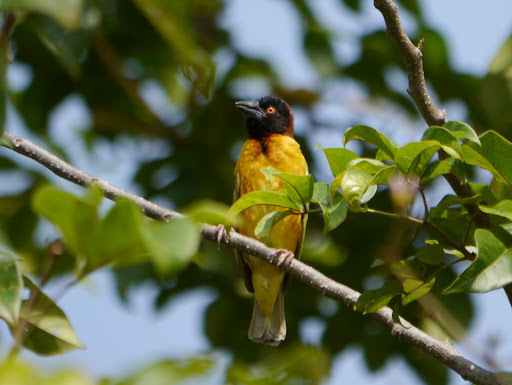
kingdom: Animalia
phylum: Chordata
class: Aves
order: Passeriformes
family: Ploceidae
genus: Ploceus
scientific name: Ploceus cucullatus
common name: Village weaver
